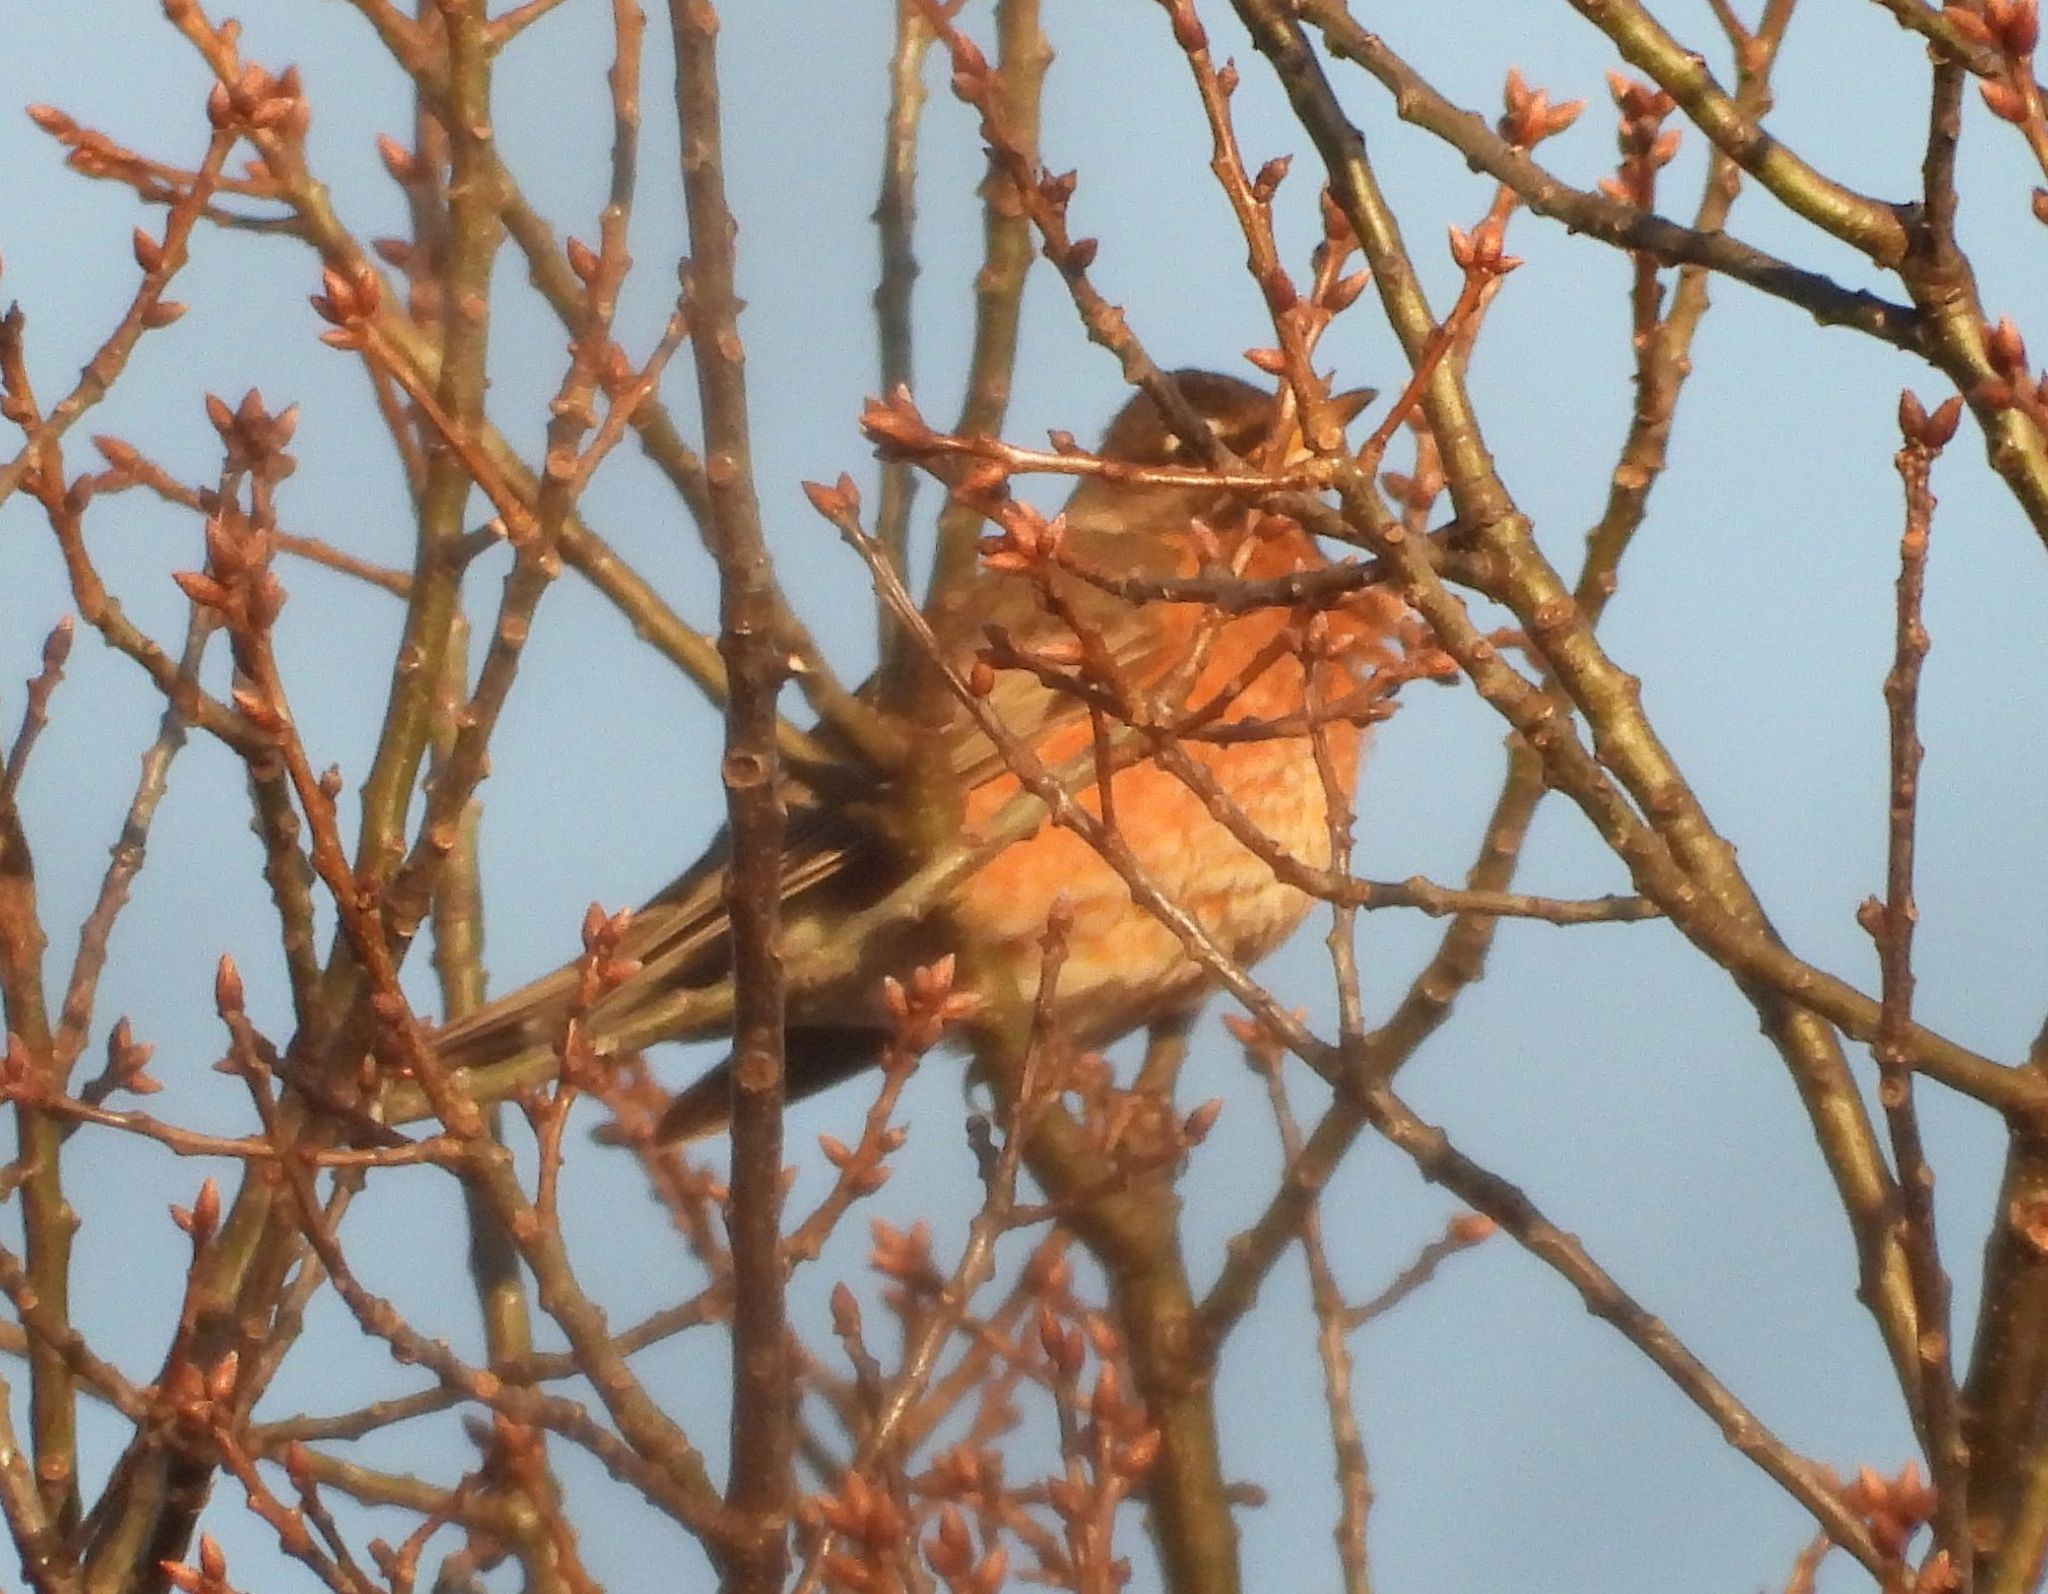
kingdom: Animalia
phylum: Chordata
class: Aves
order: Passeriformes
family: Turdidae
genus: Turdus
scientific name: Turdus migratorius
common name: American robin
